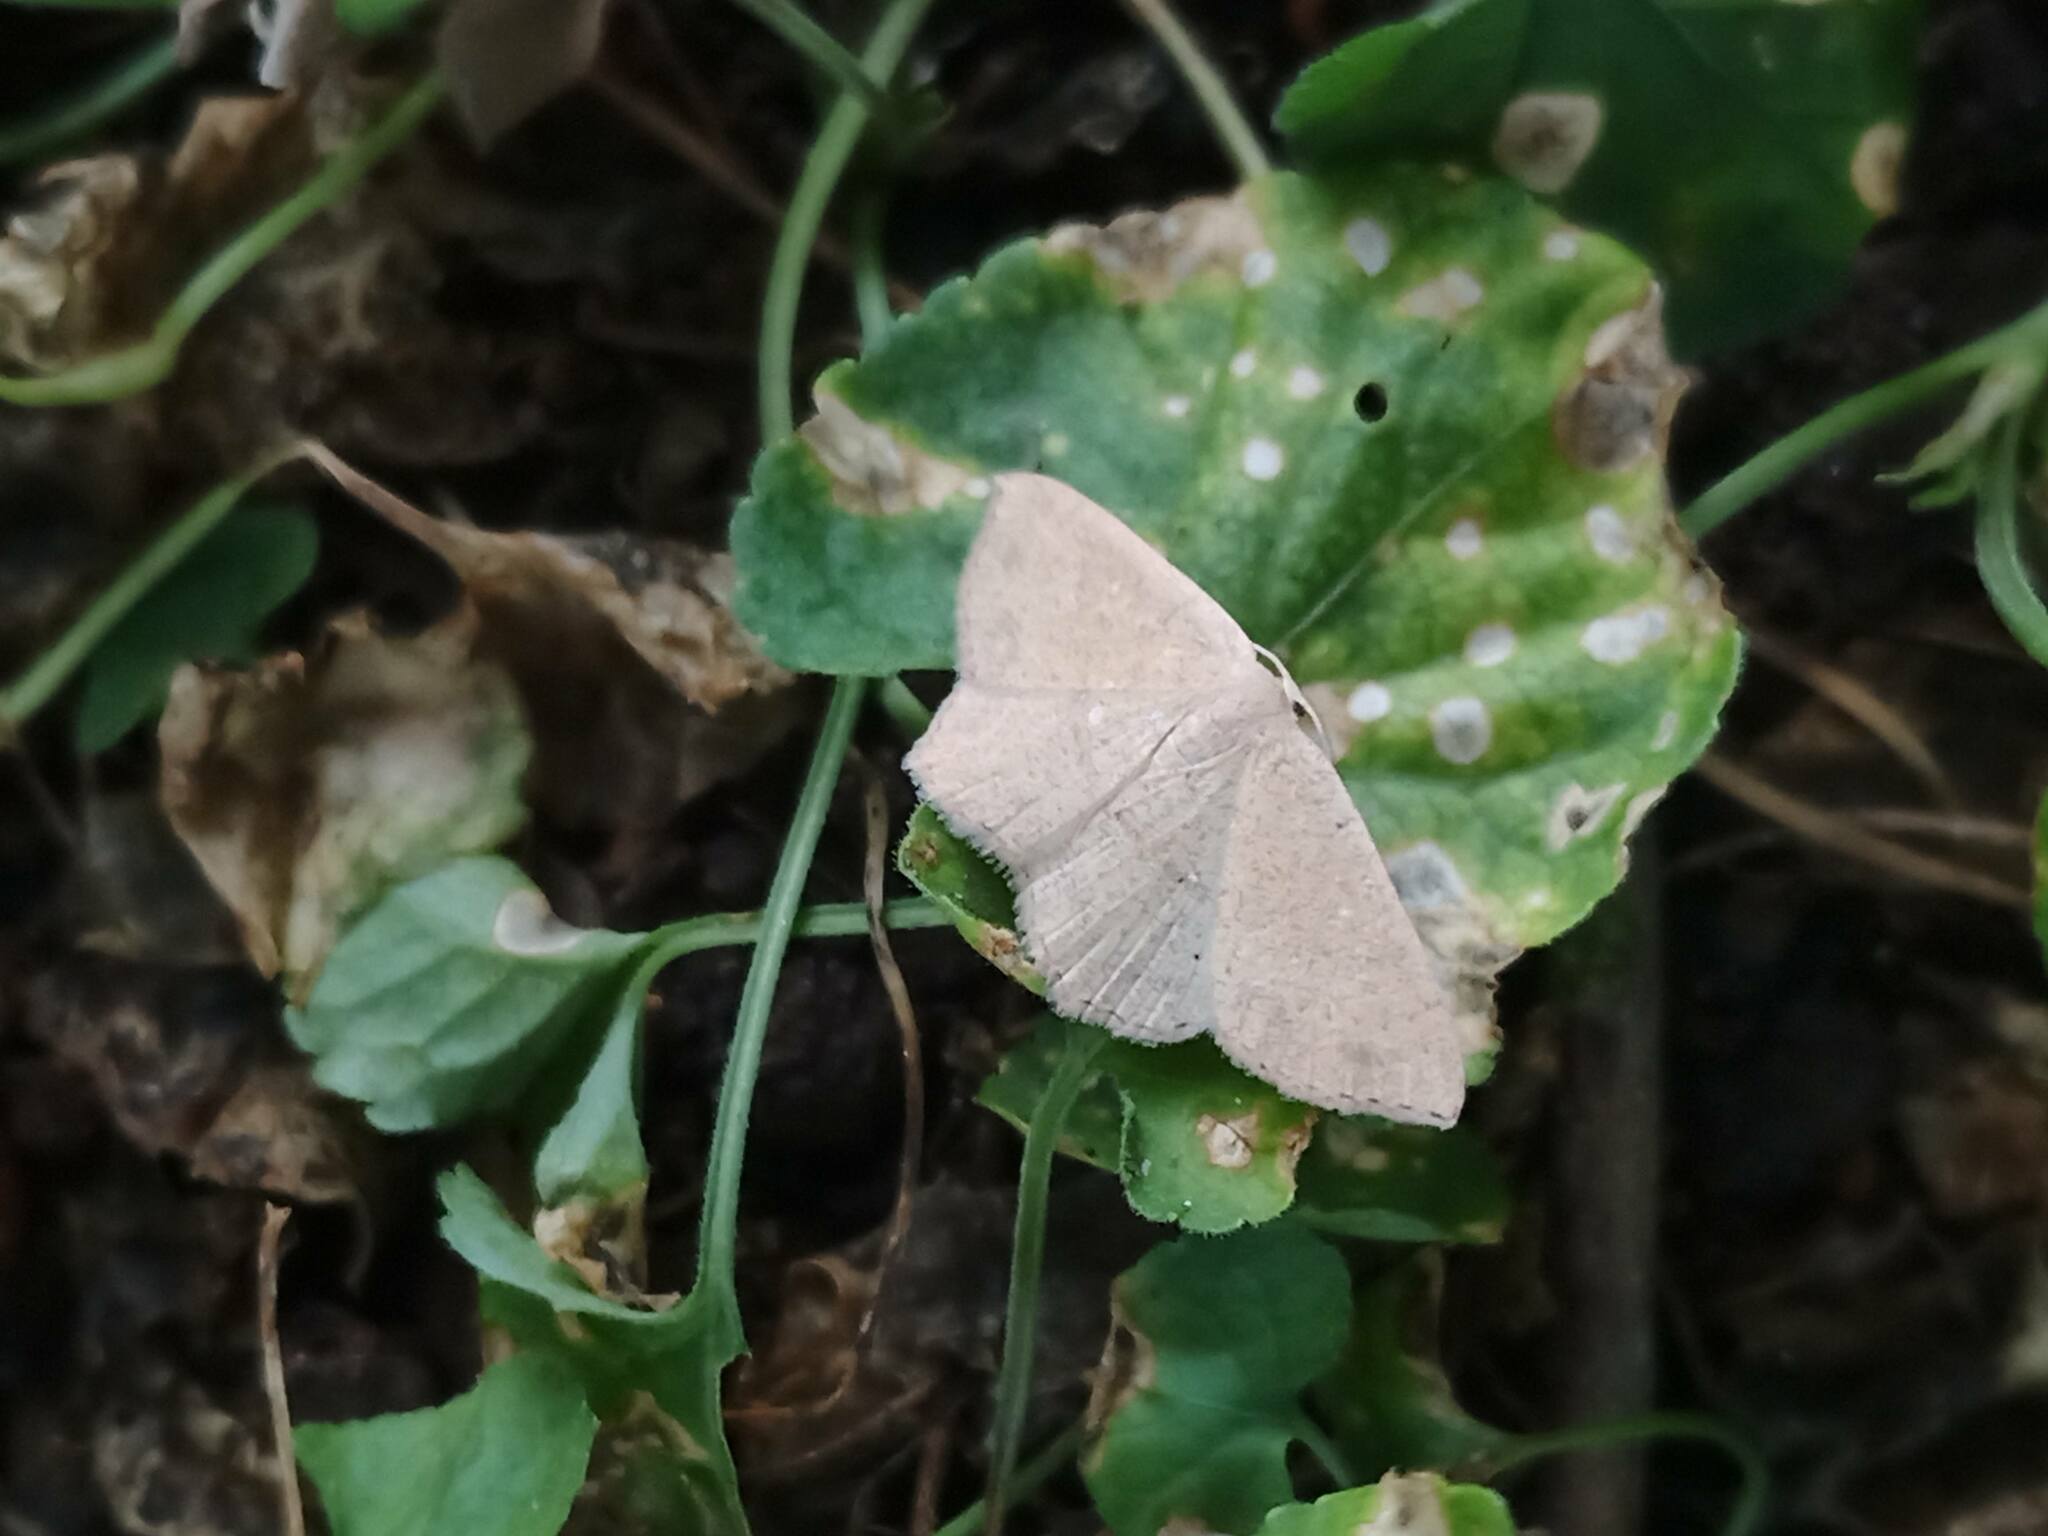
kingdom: Animalia
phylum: Arthropoda
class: Insecta
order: Lepidoptera
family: Geometridae
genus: Cyclophora
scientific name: Cyclophora puppillaria
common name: Blair's mocha
